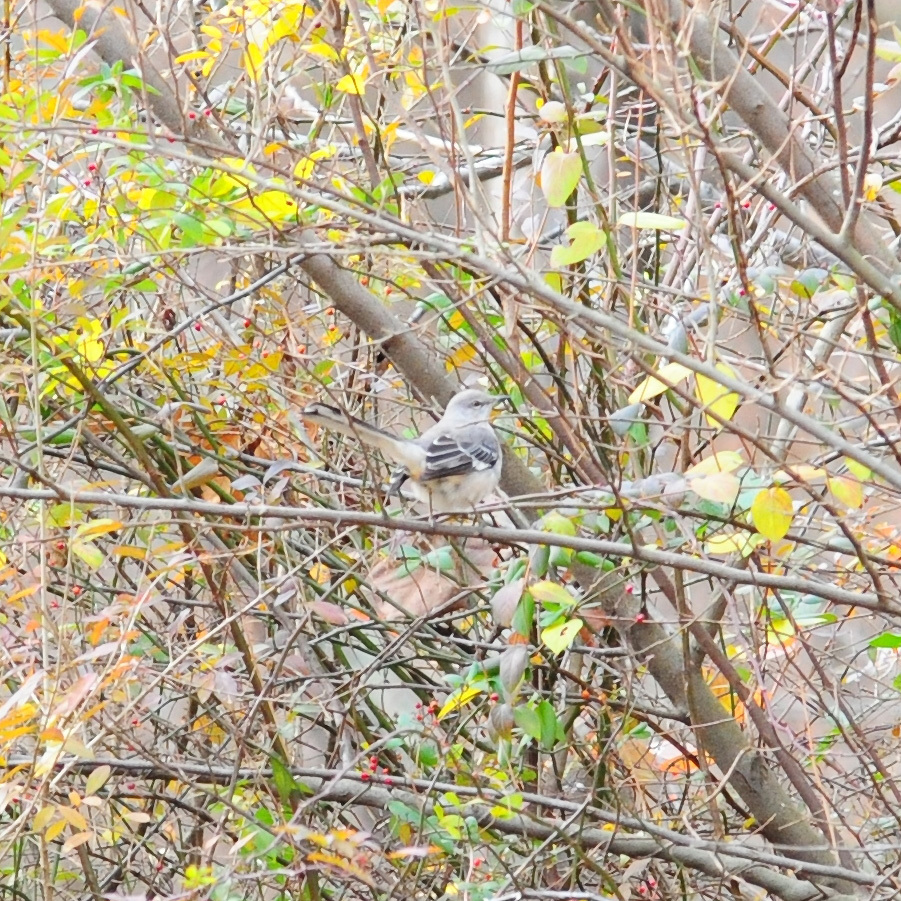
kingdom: Animalia
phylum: Chordata
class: Aves
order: Passeriformes
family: Mimidae
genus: Mimus
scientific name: Mimus polyglottos
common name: Northern mockingbird
